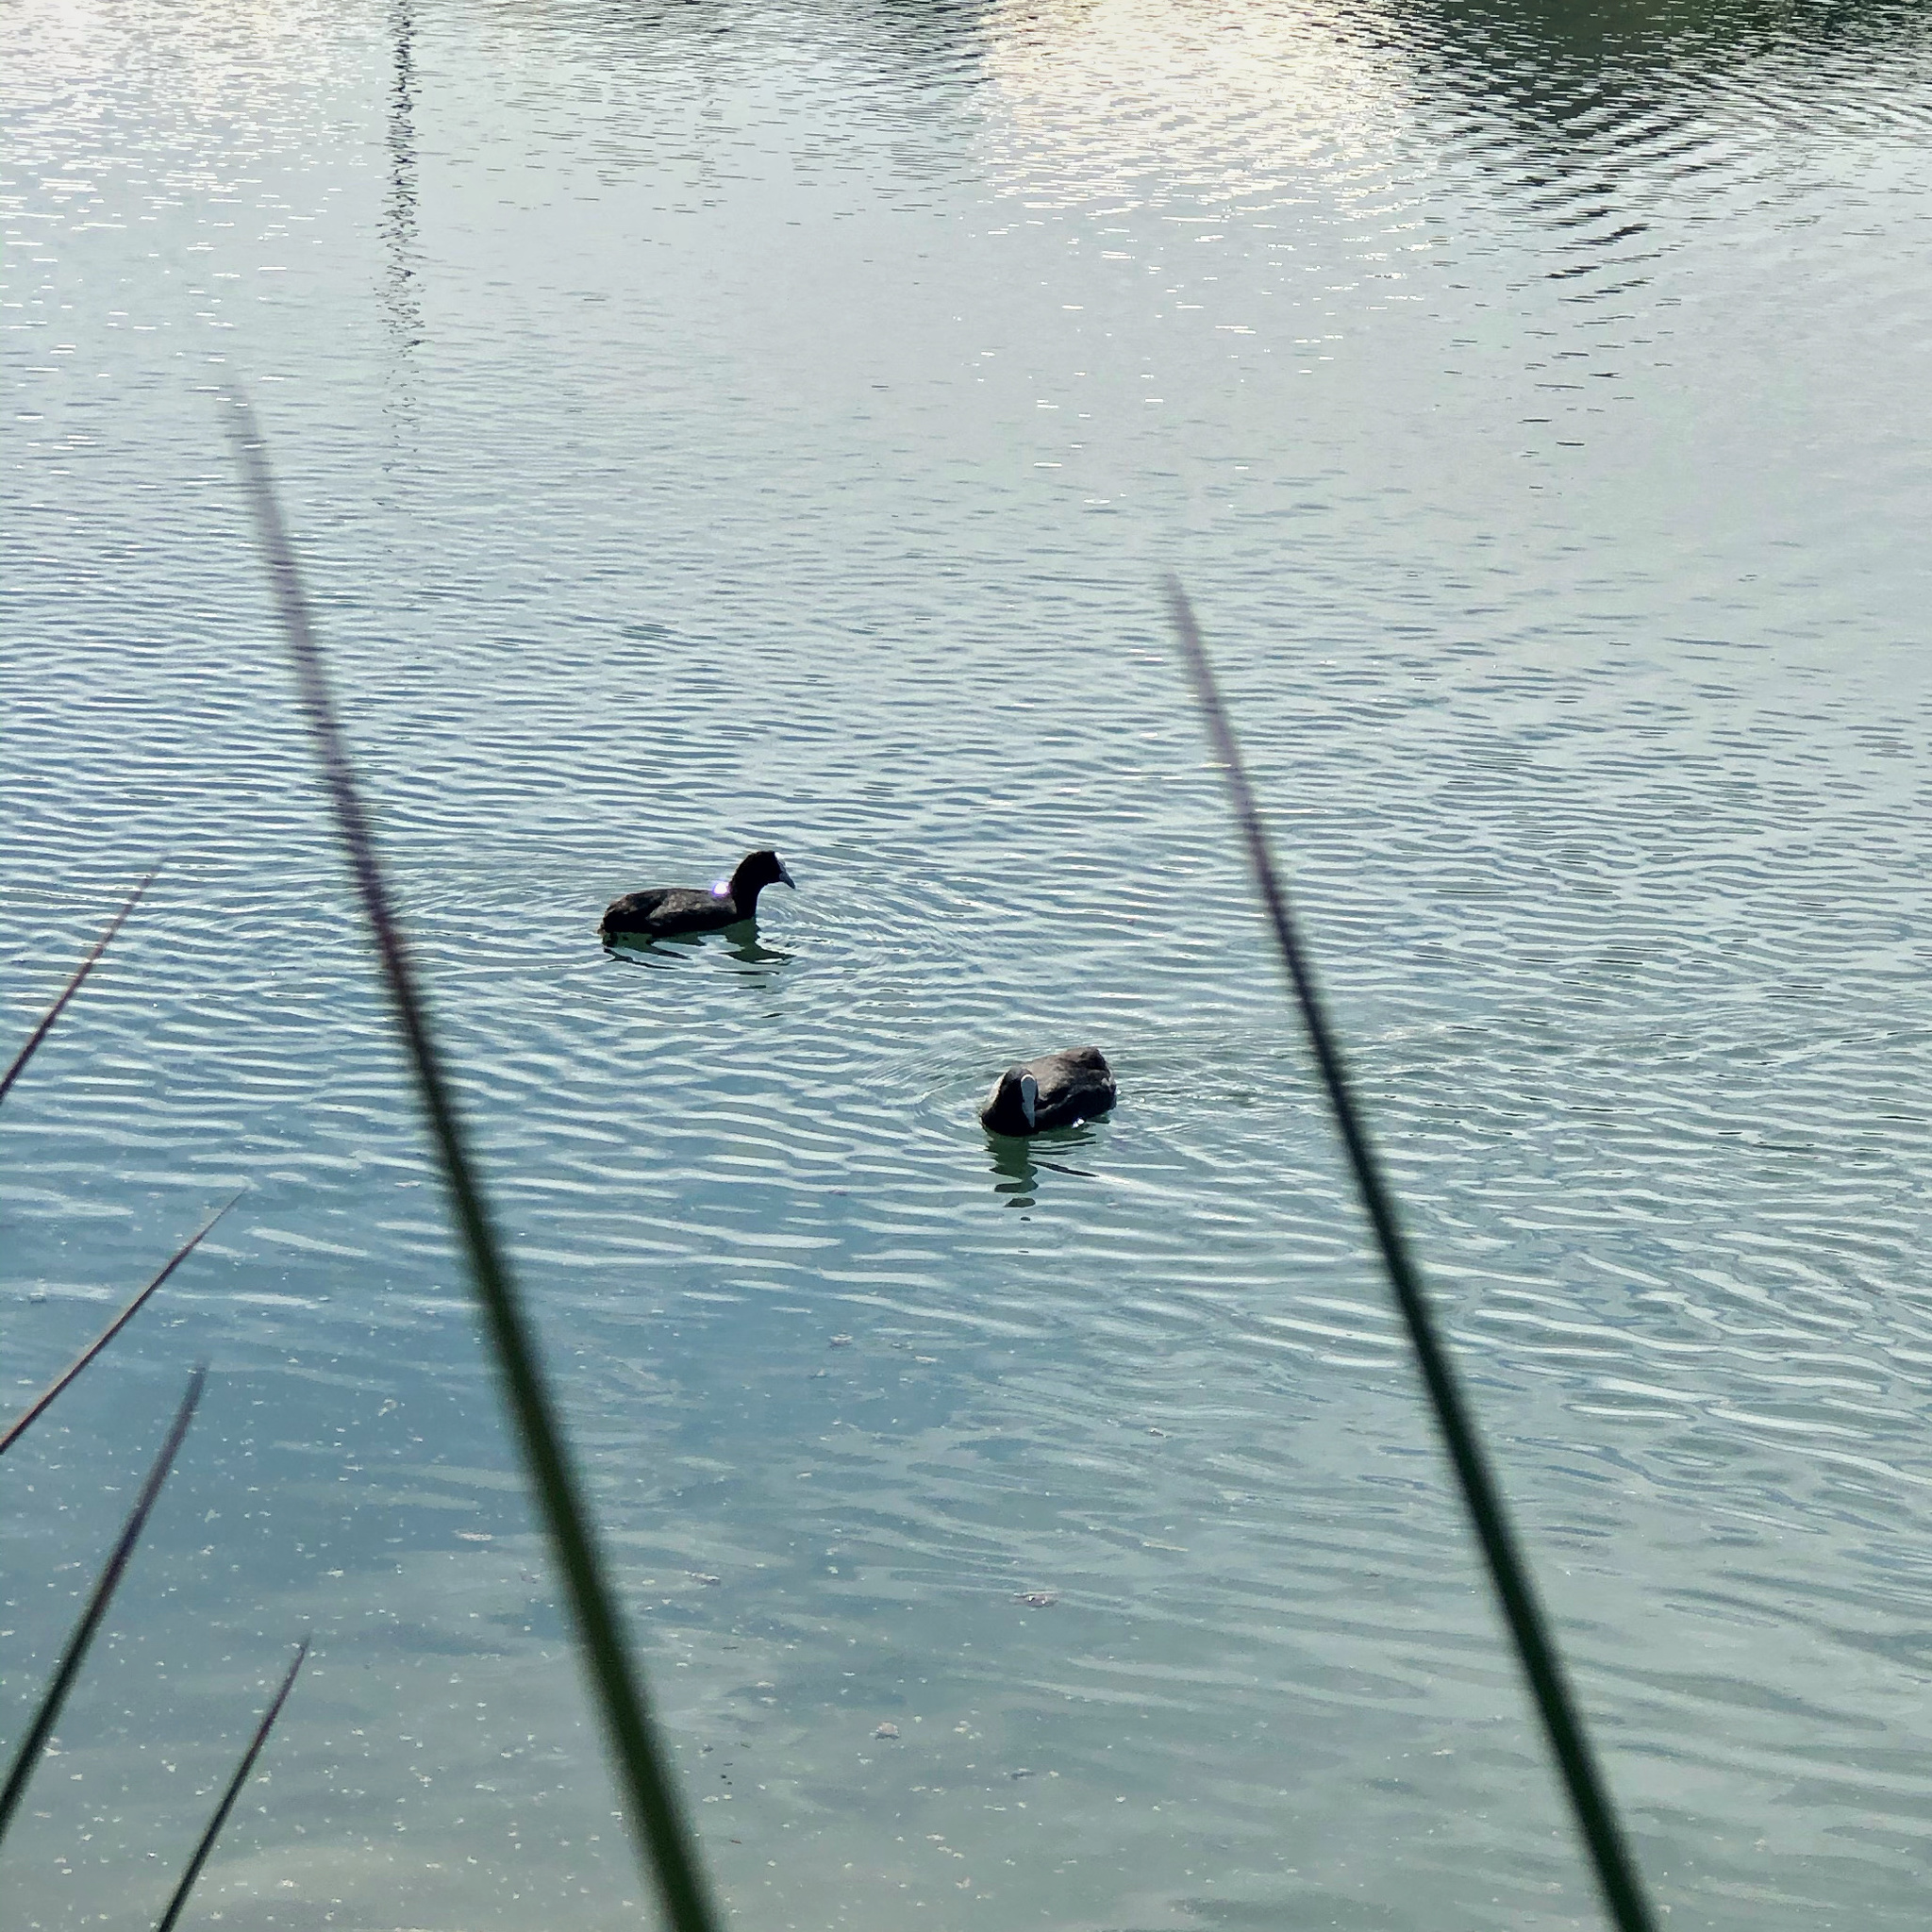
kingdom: Animalia
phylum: Chordata
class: Aves
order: Gruiformes
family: Rallidae
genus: Fulica
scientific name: Fulica atra
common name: Eurasian coot
